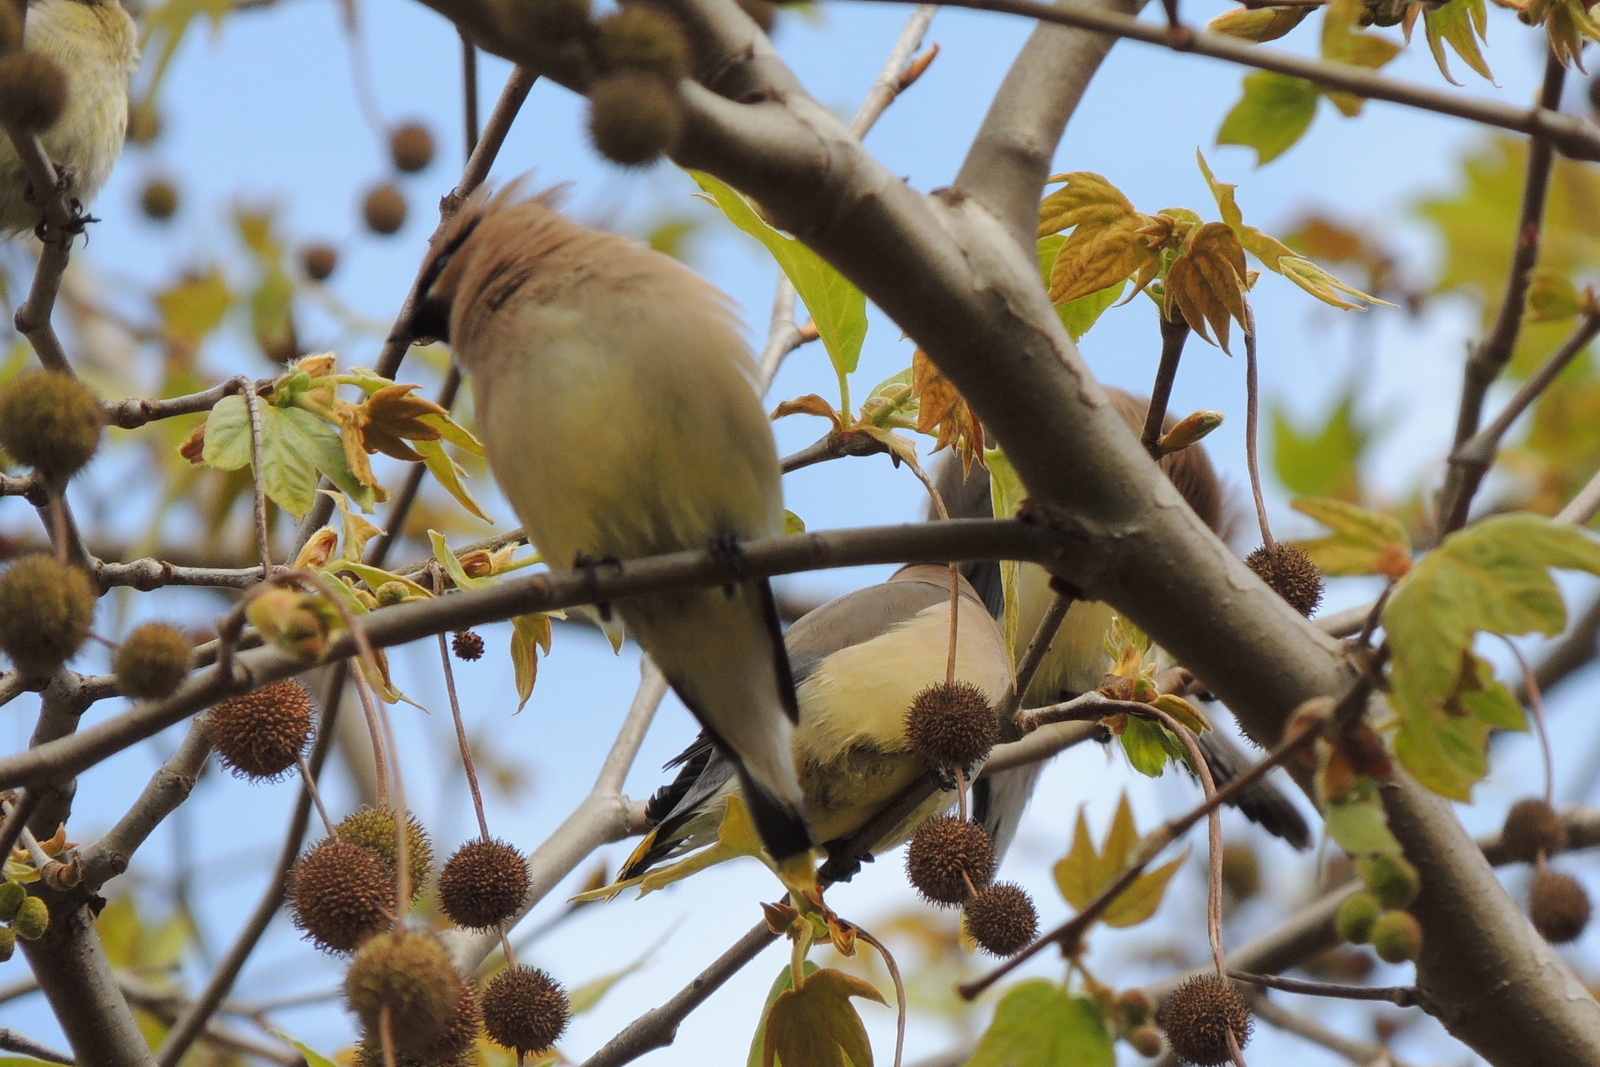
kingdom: Animalia
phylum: Chordata
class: Aves
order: Passeriformes
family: Bombycillidae
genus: Bombycilla
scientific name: Bombycilla cedrorum
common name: Cedar waxwing
